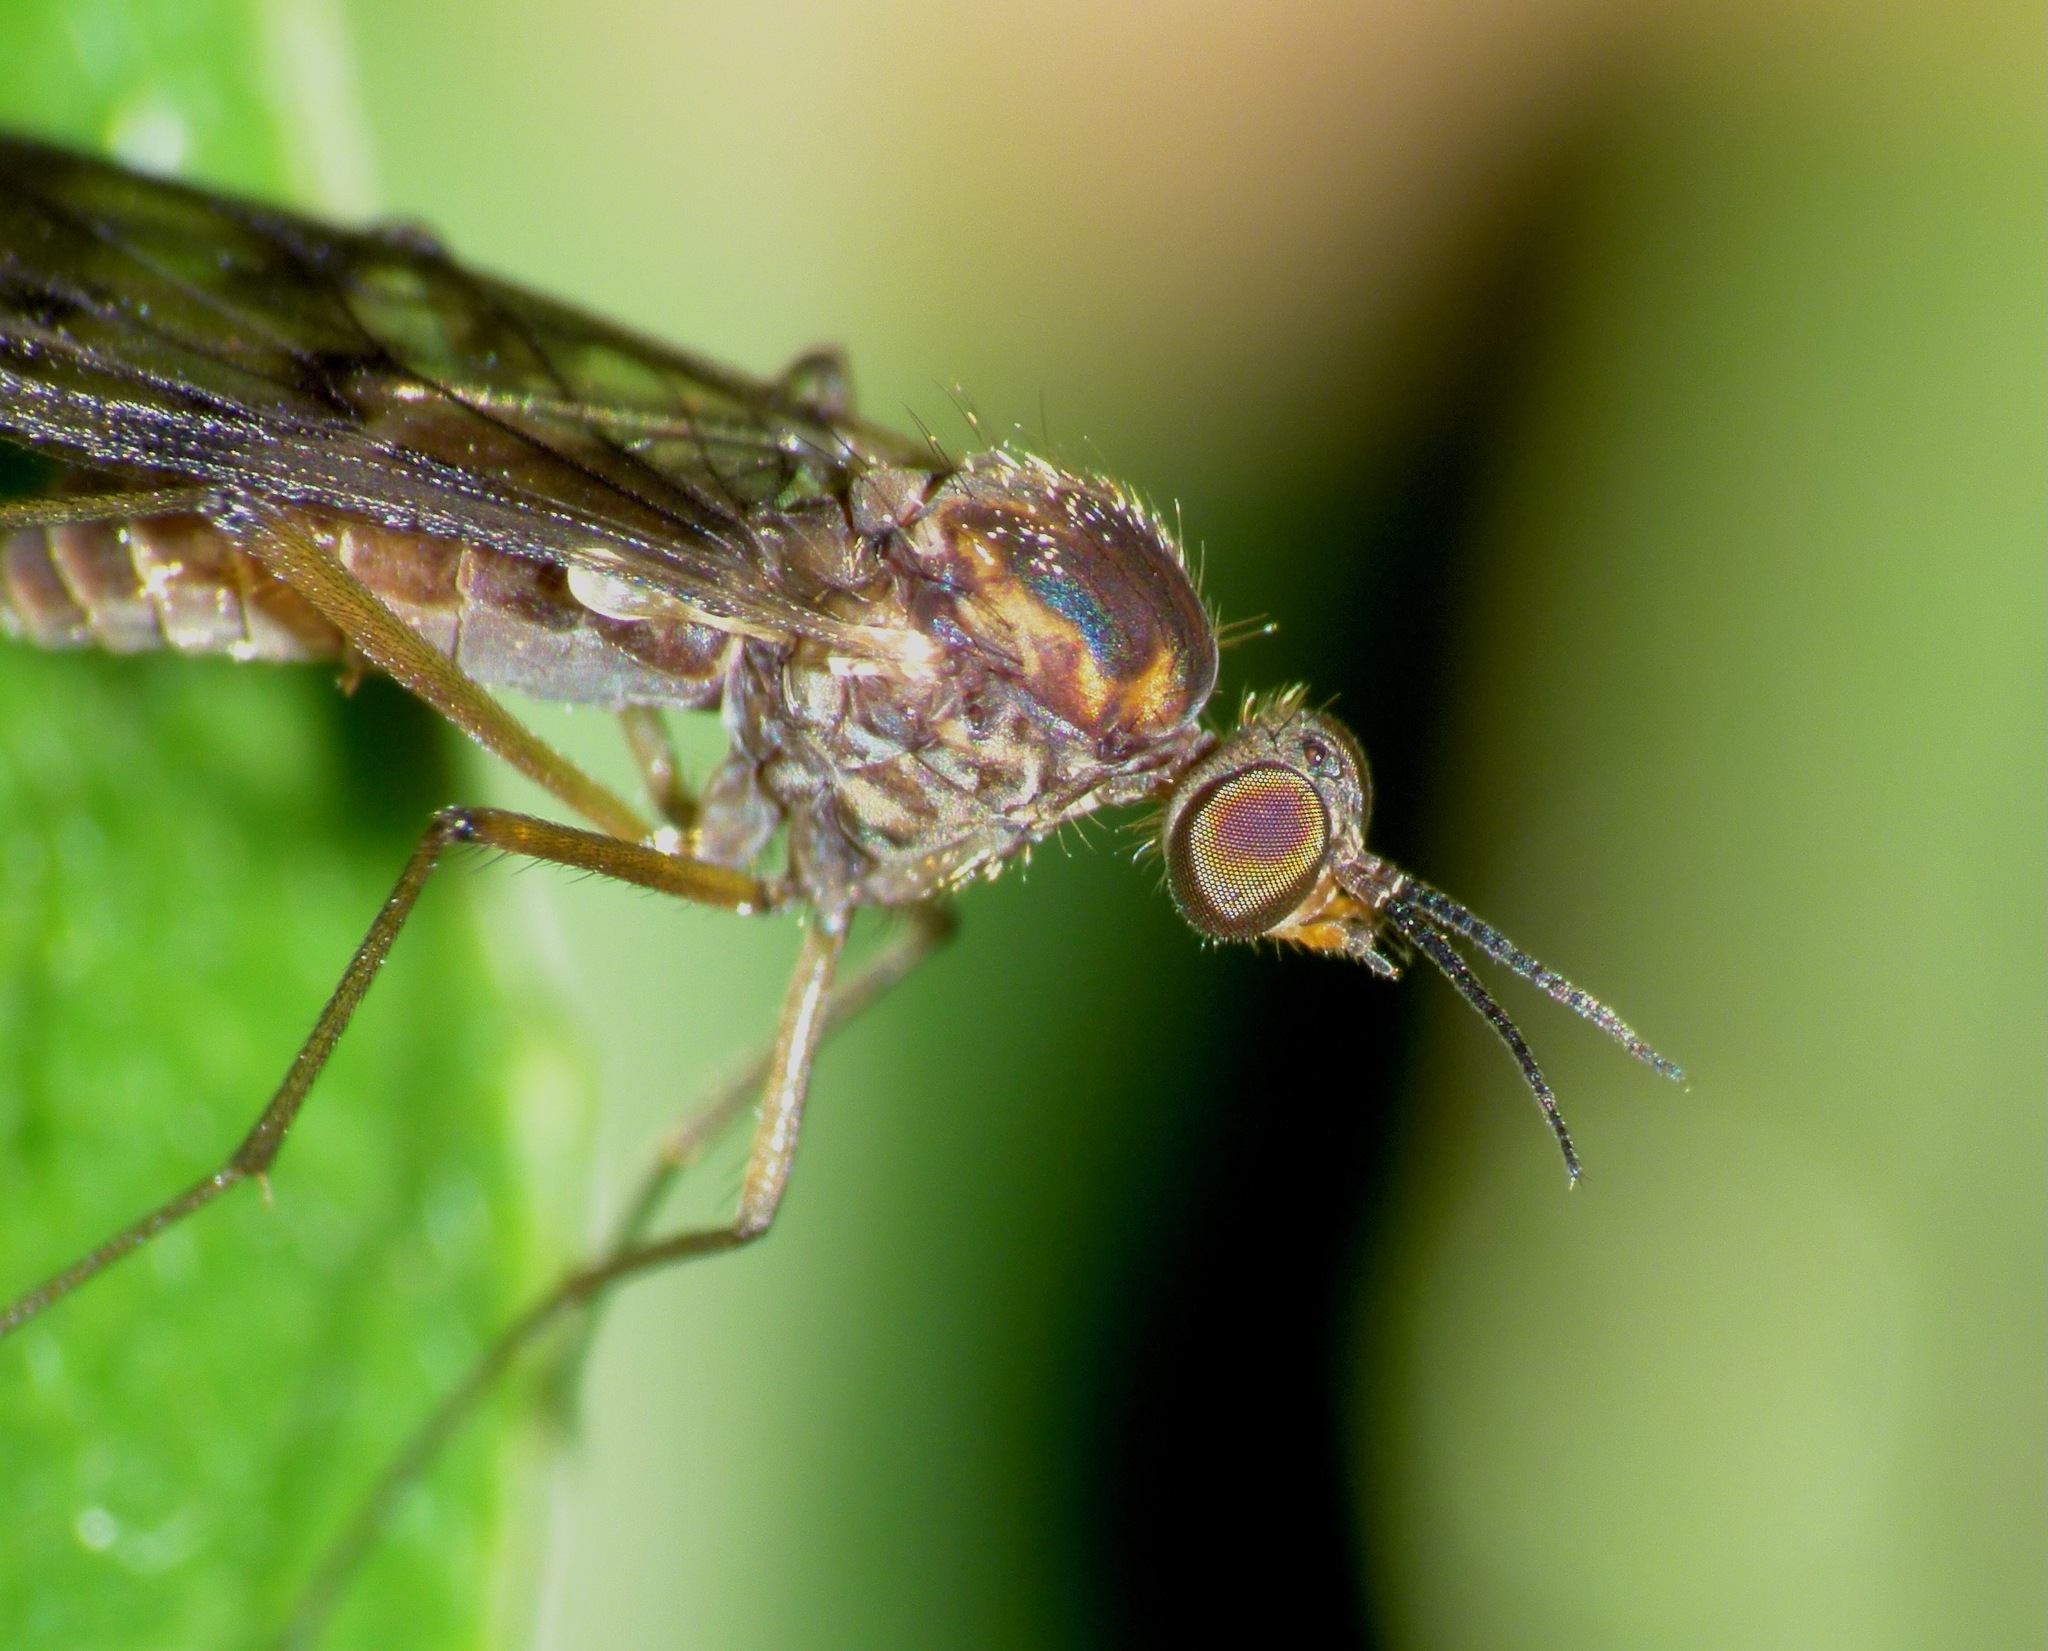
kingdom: Animalia
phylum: Arthropoda
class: Insecta
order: Diptera
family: Anisopodidae
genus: Sylvicola
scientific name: Sylvicola undulatus
